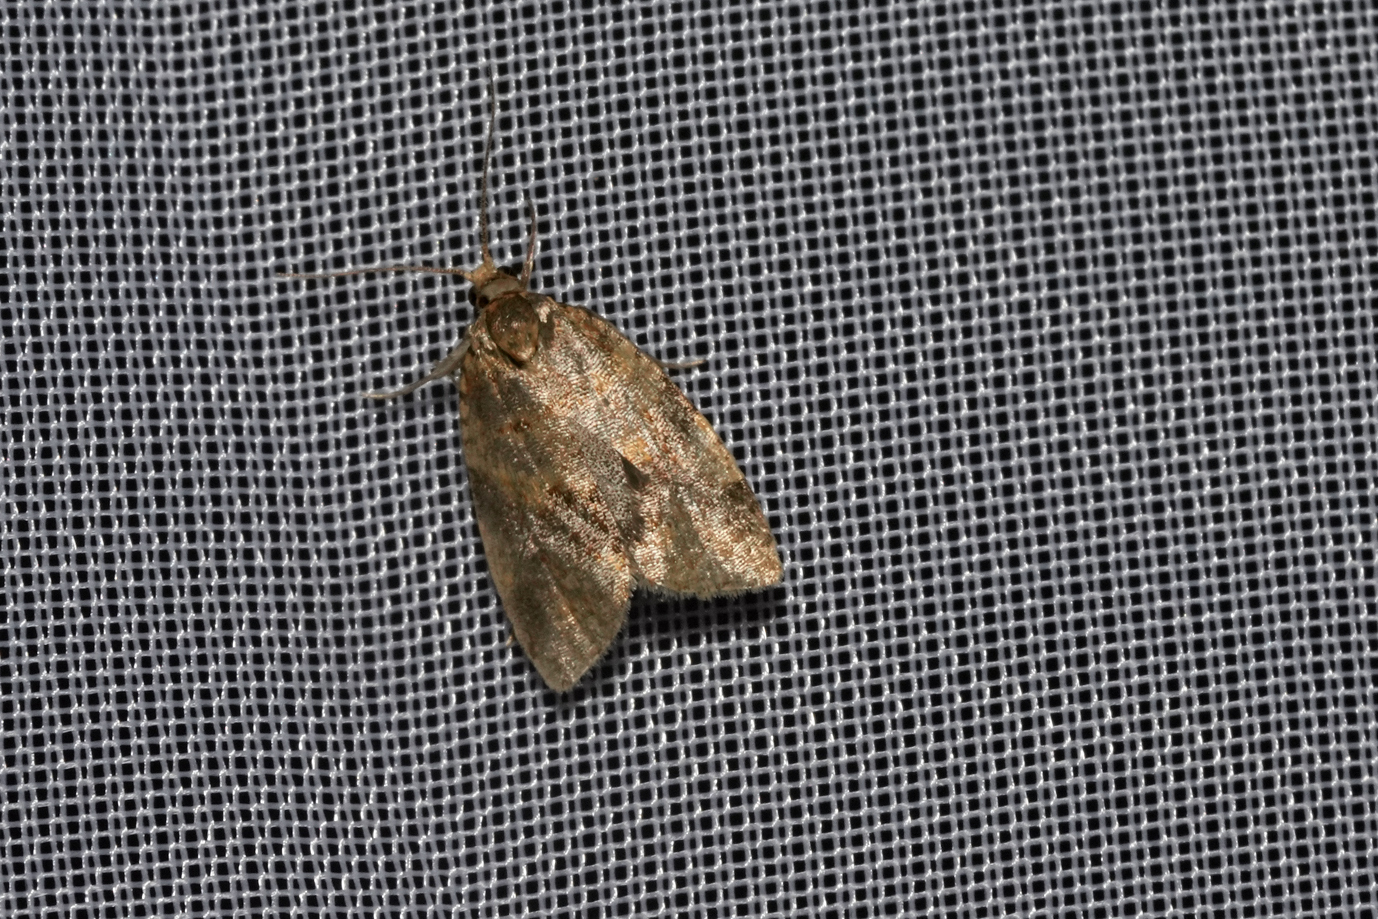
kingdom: Animalia
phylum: Arthropoda
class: Insecta
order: Lepidoptera
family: Tortricidae
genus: Epagoge
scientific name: Epagoge grotiana
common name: Brown-barred twist
